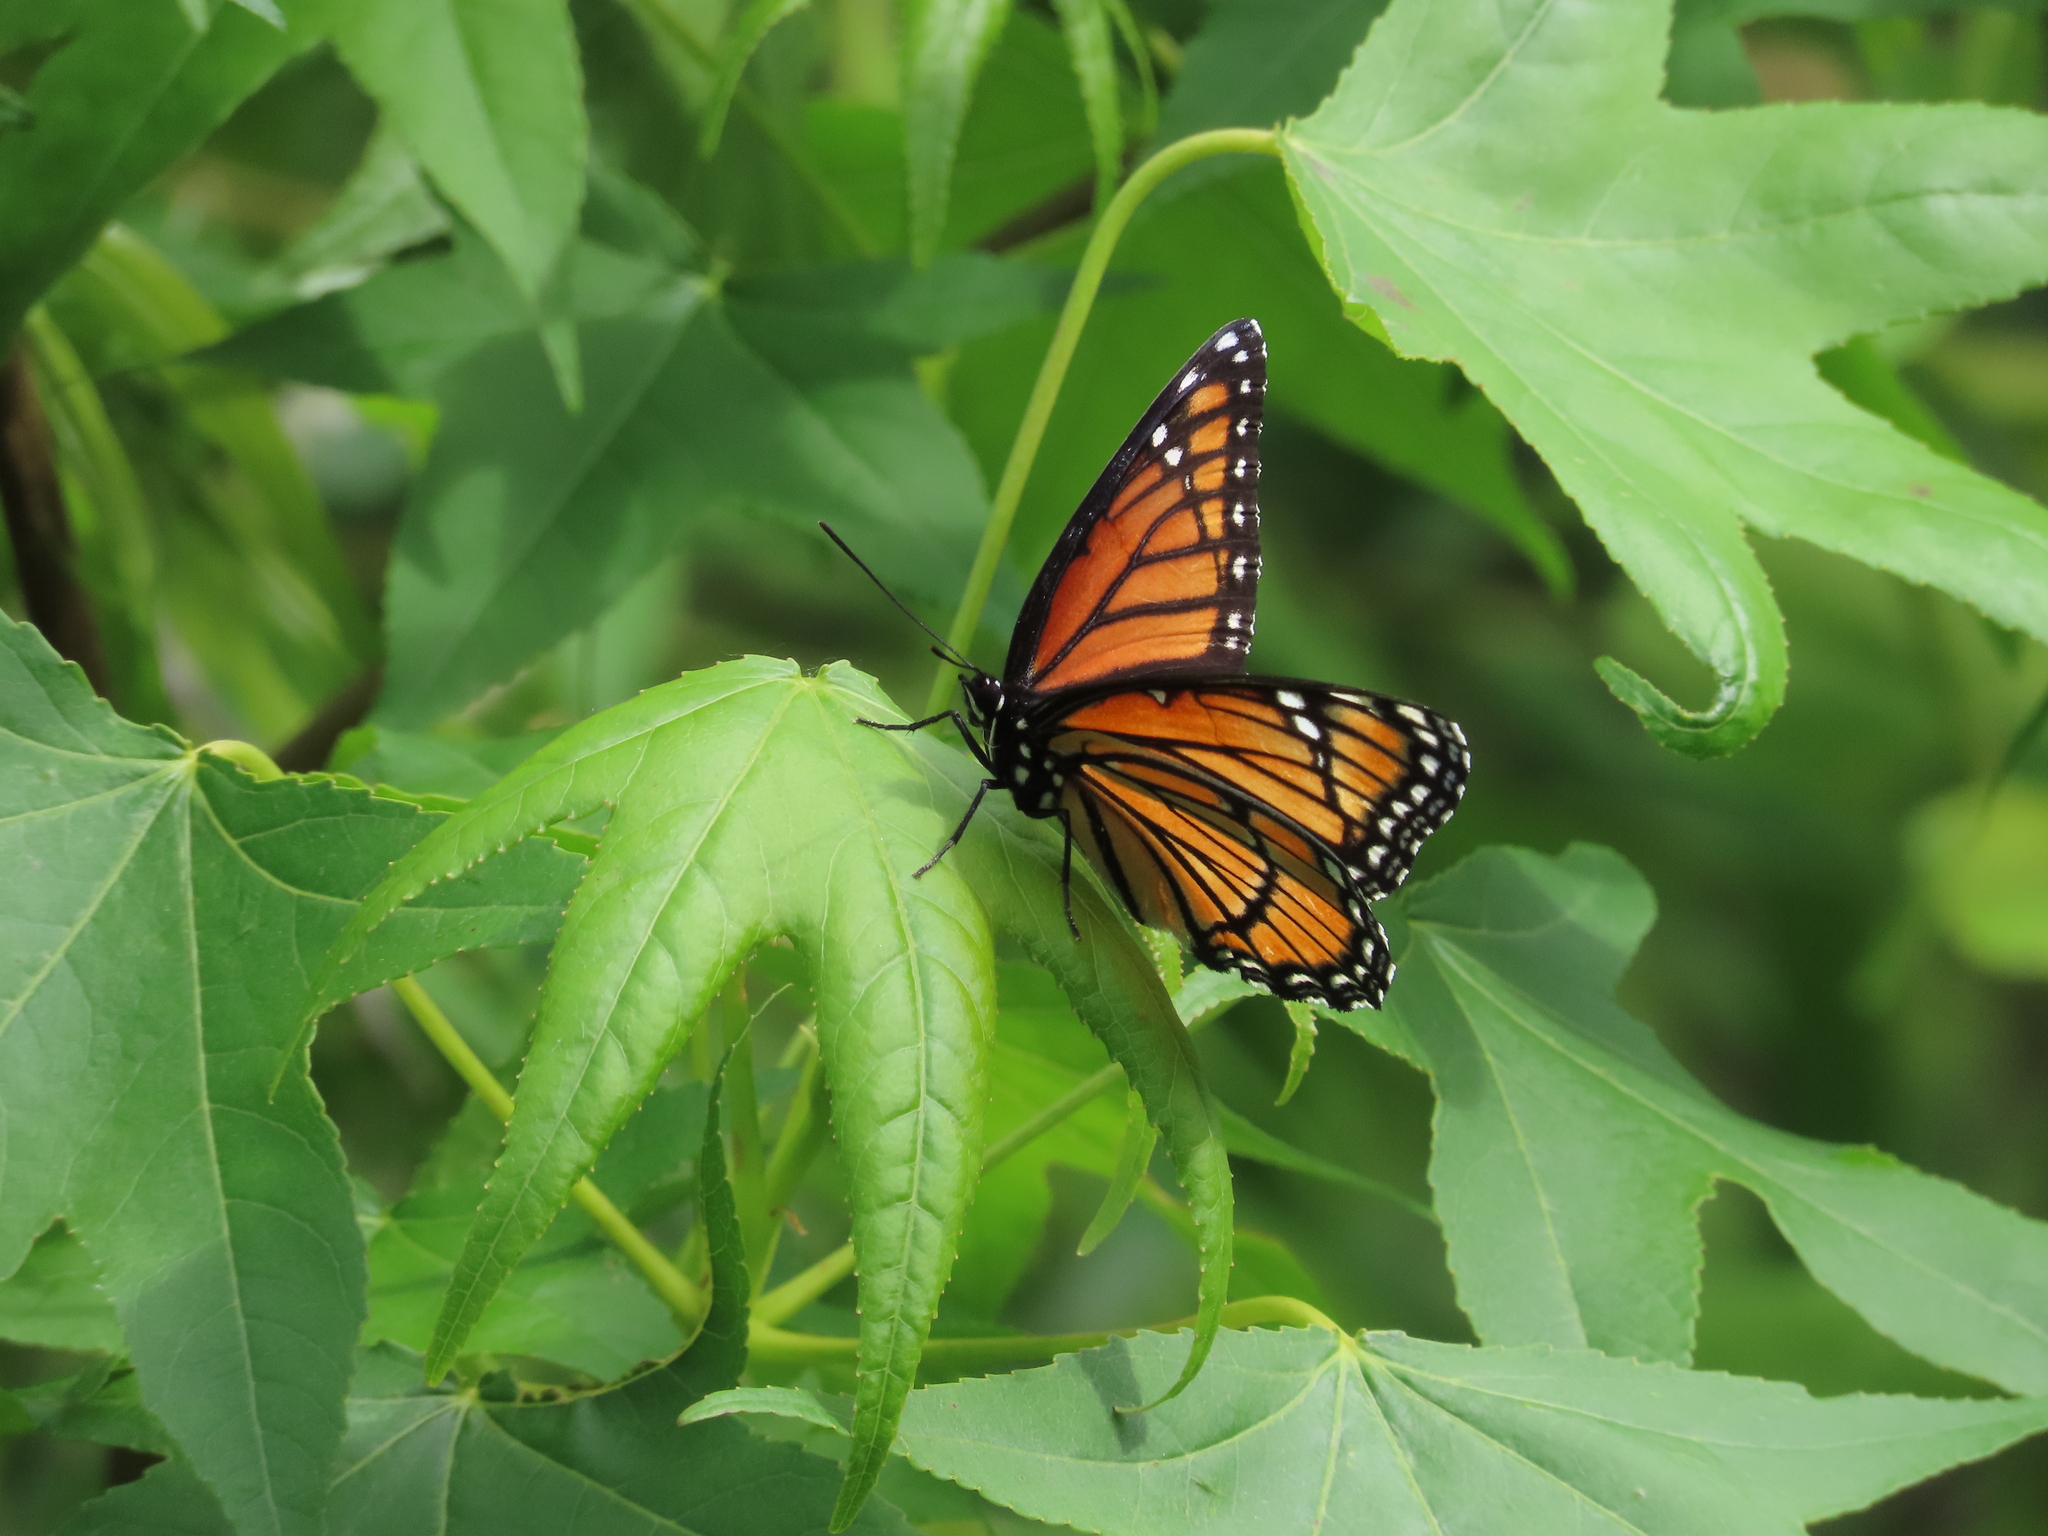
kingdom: Animalia
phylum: Arthropoda
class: Insecta
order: Lepidoptera
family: Nymphalidae
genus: Limenitis
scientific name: Limenitis archippus
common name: Viceroy
